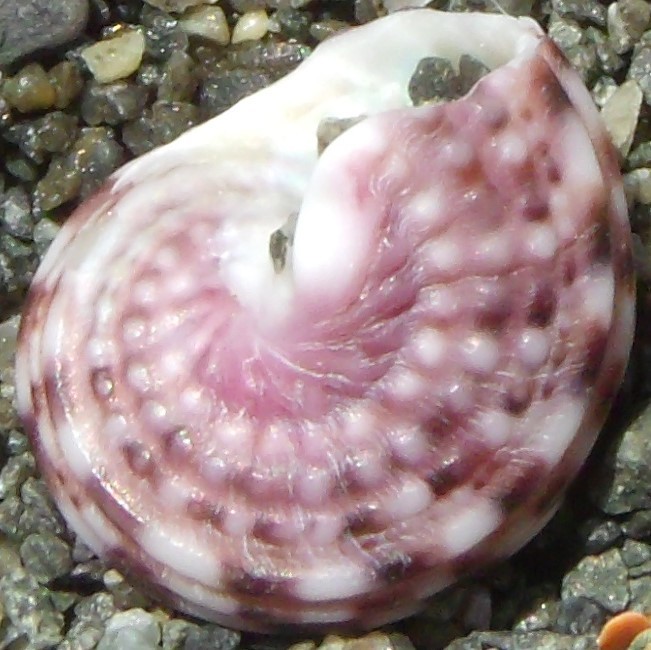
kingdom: Animalia
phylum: Mollusca
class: Gastropoda
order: Trochida
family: Turbinidae
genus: Modelia
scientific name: Modelia granosa
